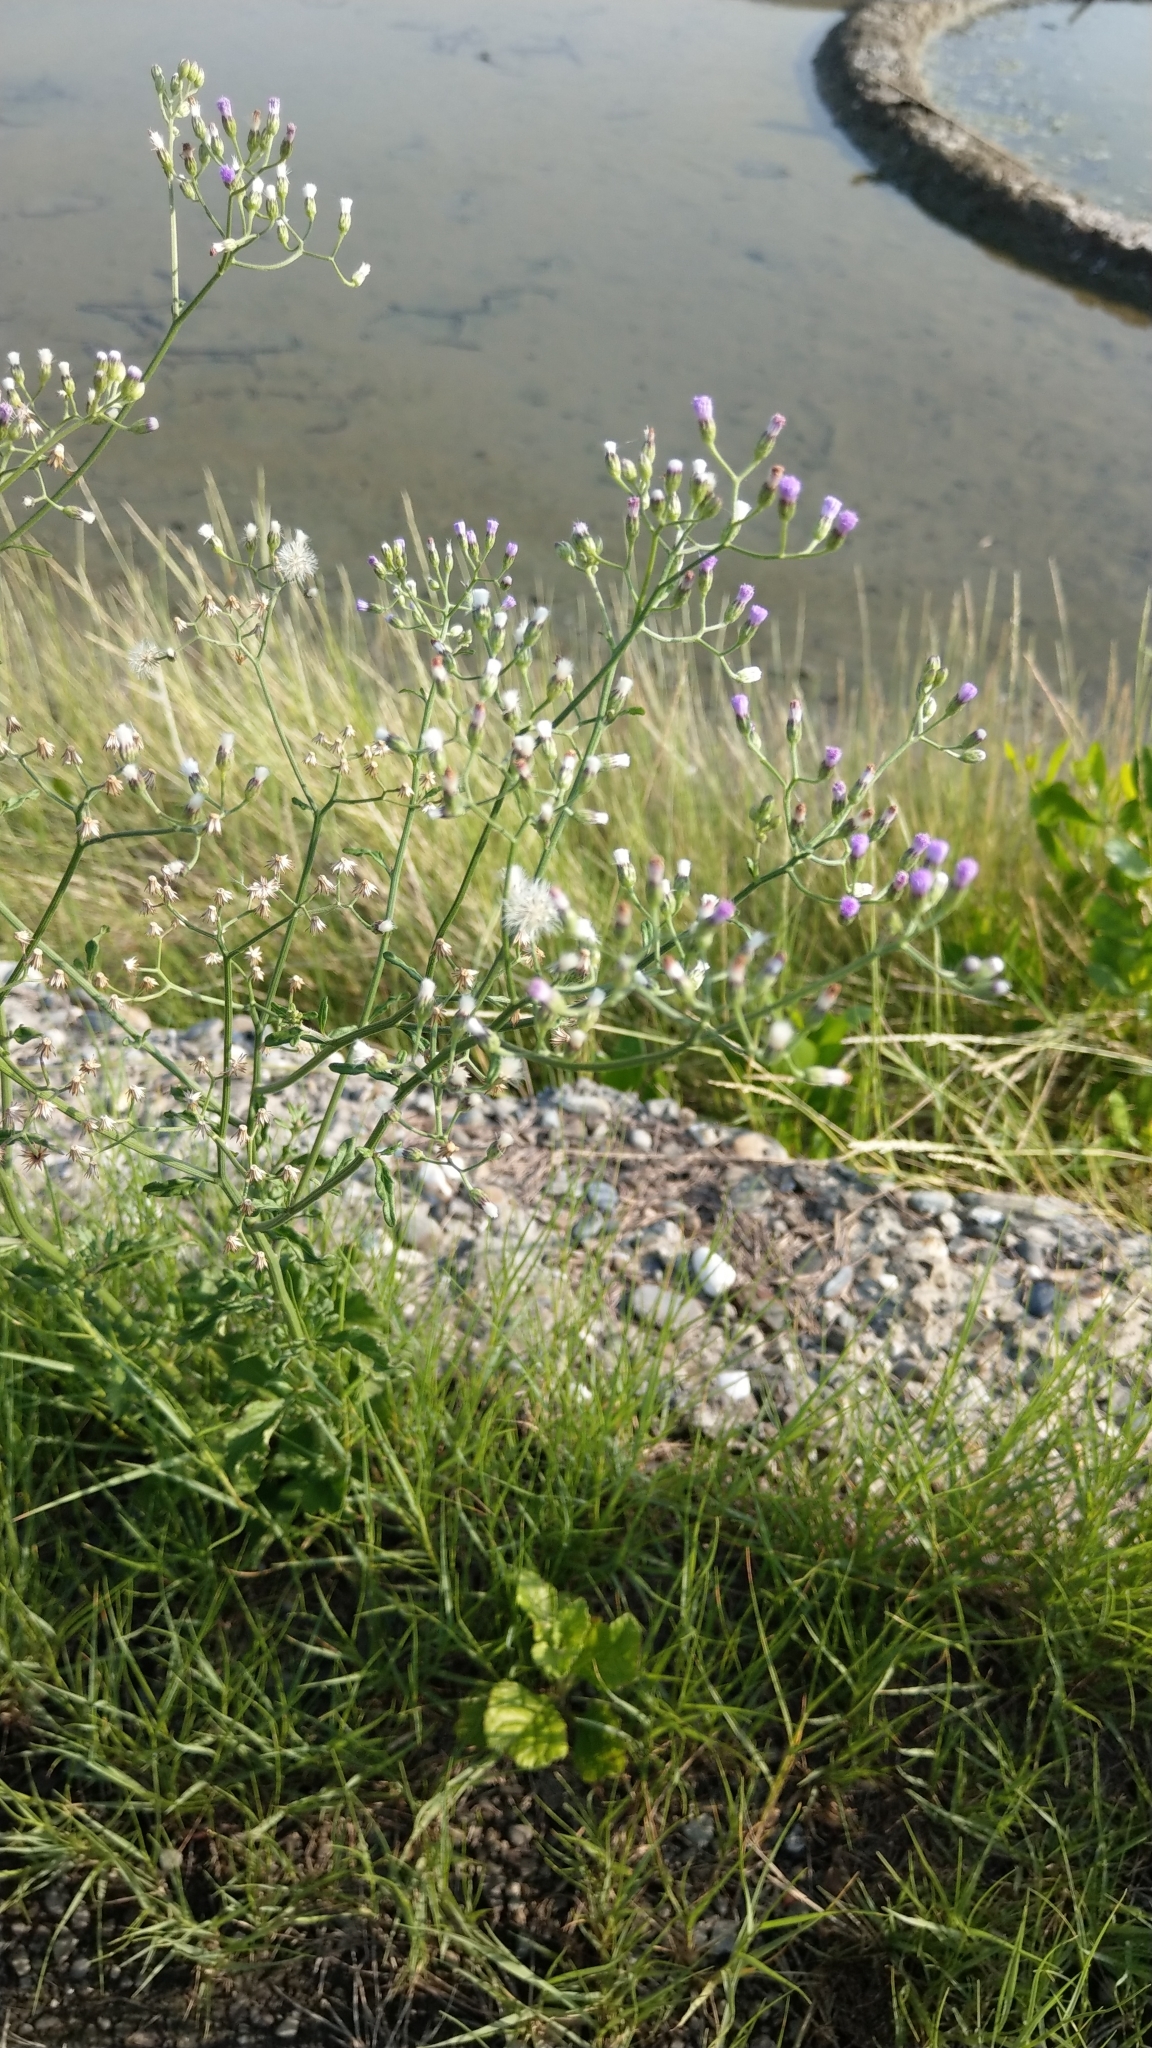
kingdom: Plantae
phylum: Tracheophyta
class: Magnoliopsida
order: Asterales
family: Asteraceae
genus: Cyanthillium
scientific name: Cyanthillium cinereum
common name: Little ironweed
